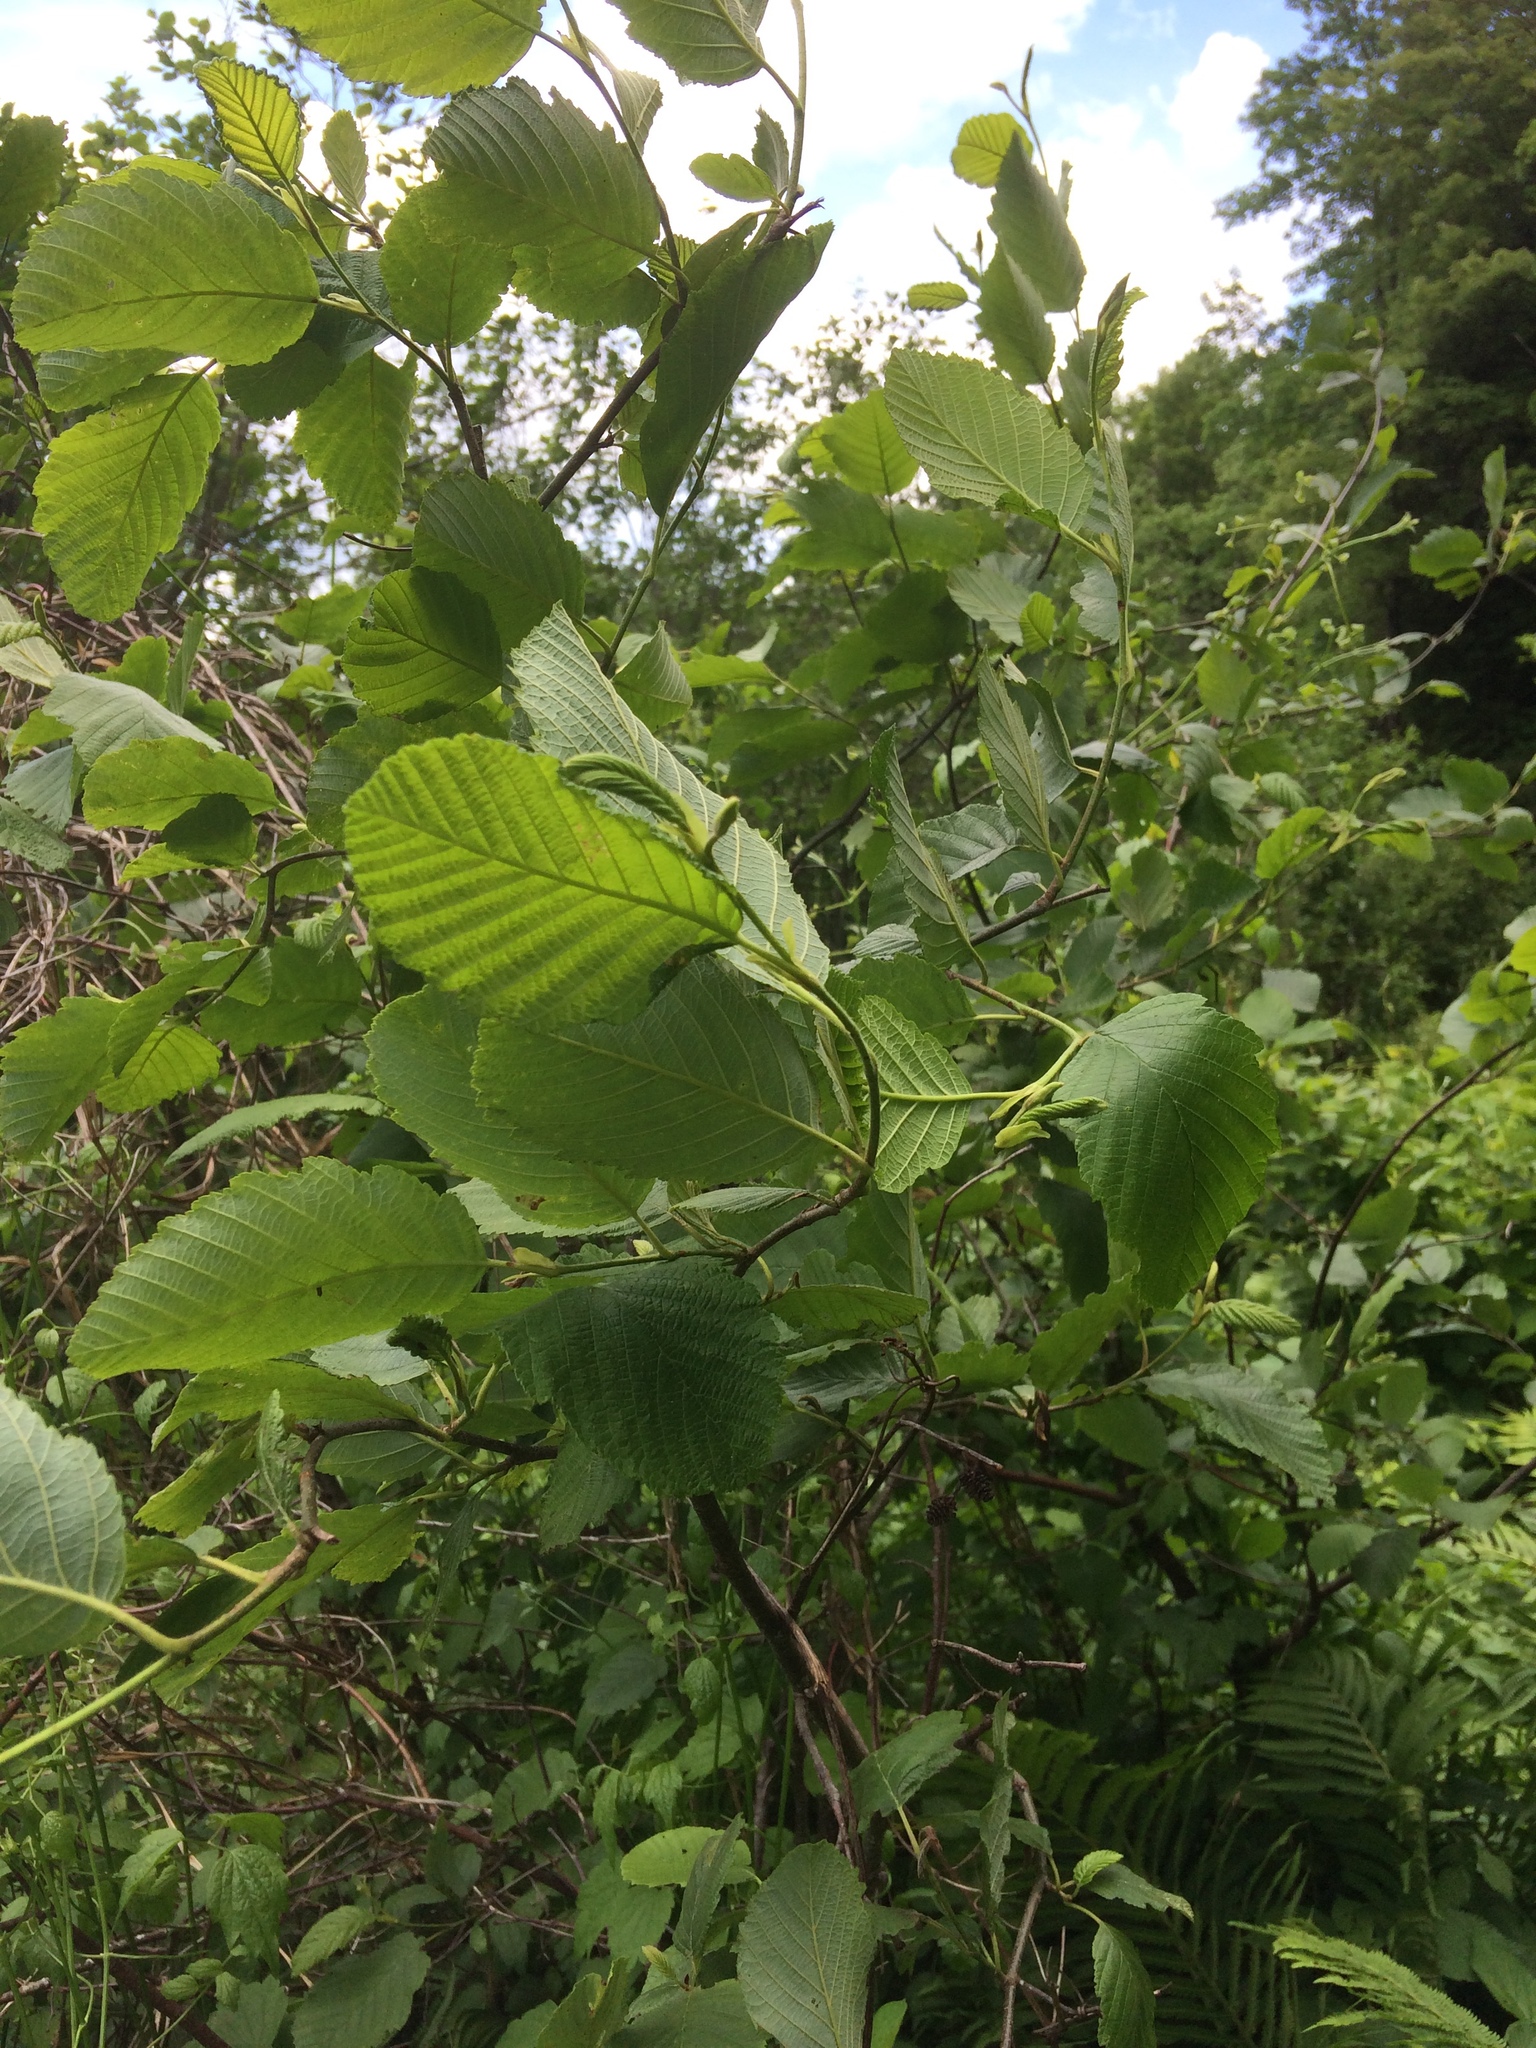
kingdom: Plantae
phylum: Tracheophyta
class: Magnoliopsida
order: Fagales
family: Betulaceae
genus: Alnus
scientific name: Alnus incana
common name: Grey alder
